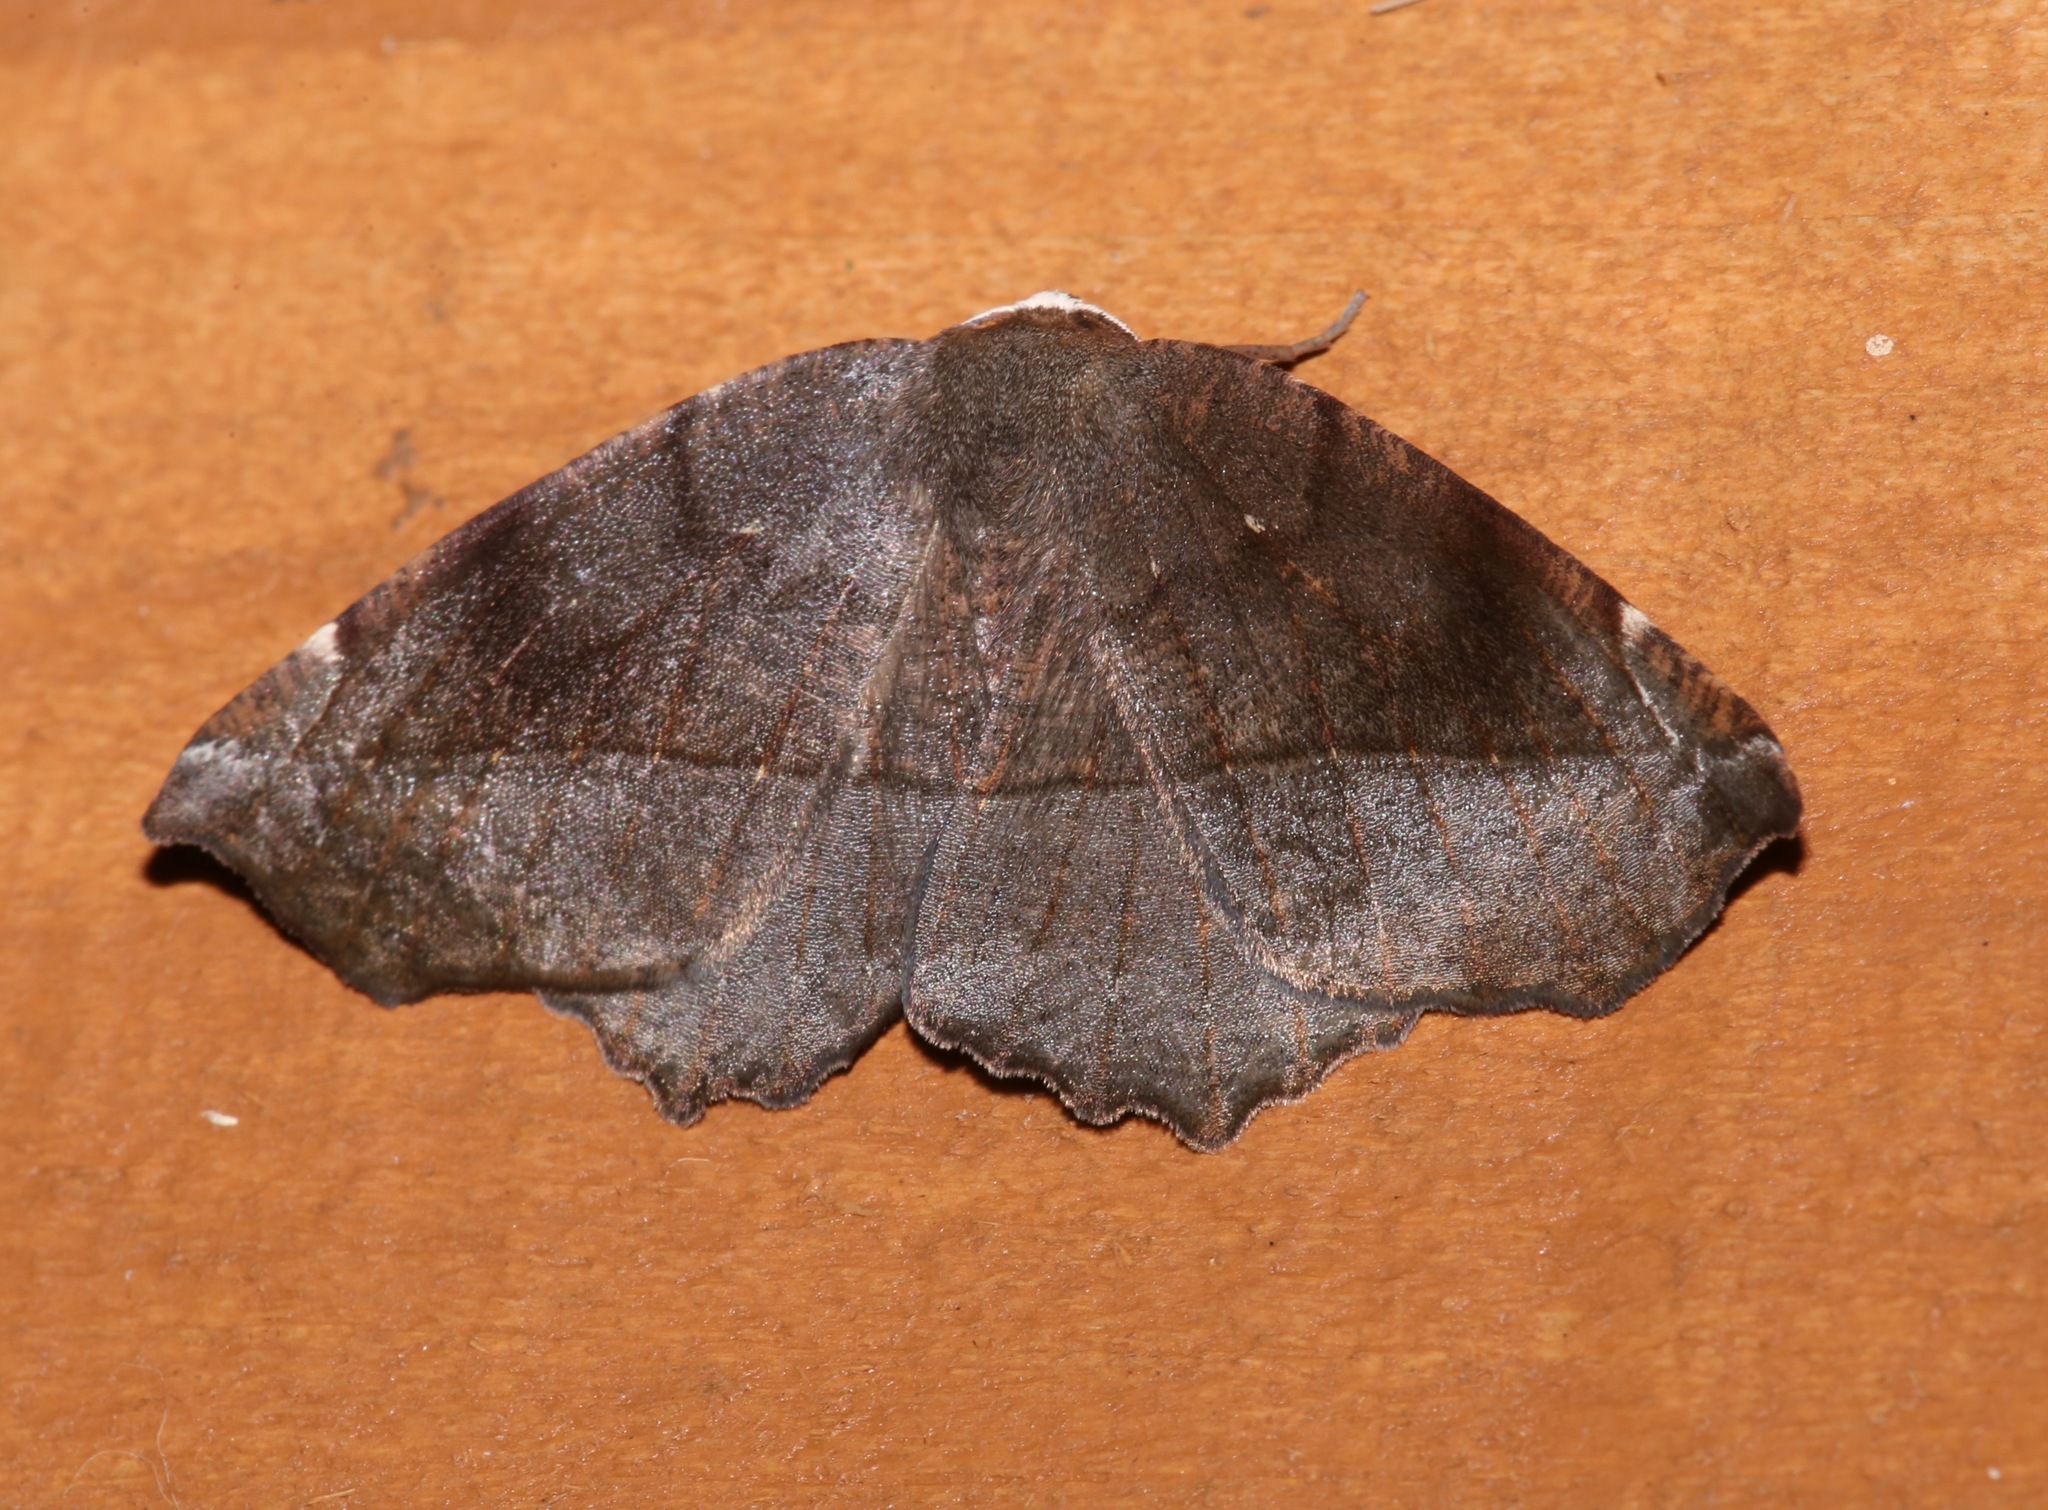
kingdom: Animalia
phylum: Arthropoda
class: Insecta
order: Lepidoptera
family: Geometridae
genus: Eutrapela
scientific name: Eutrapela clemataria
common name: Curved-toothed geometer
